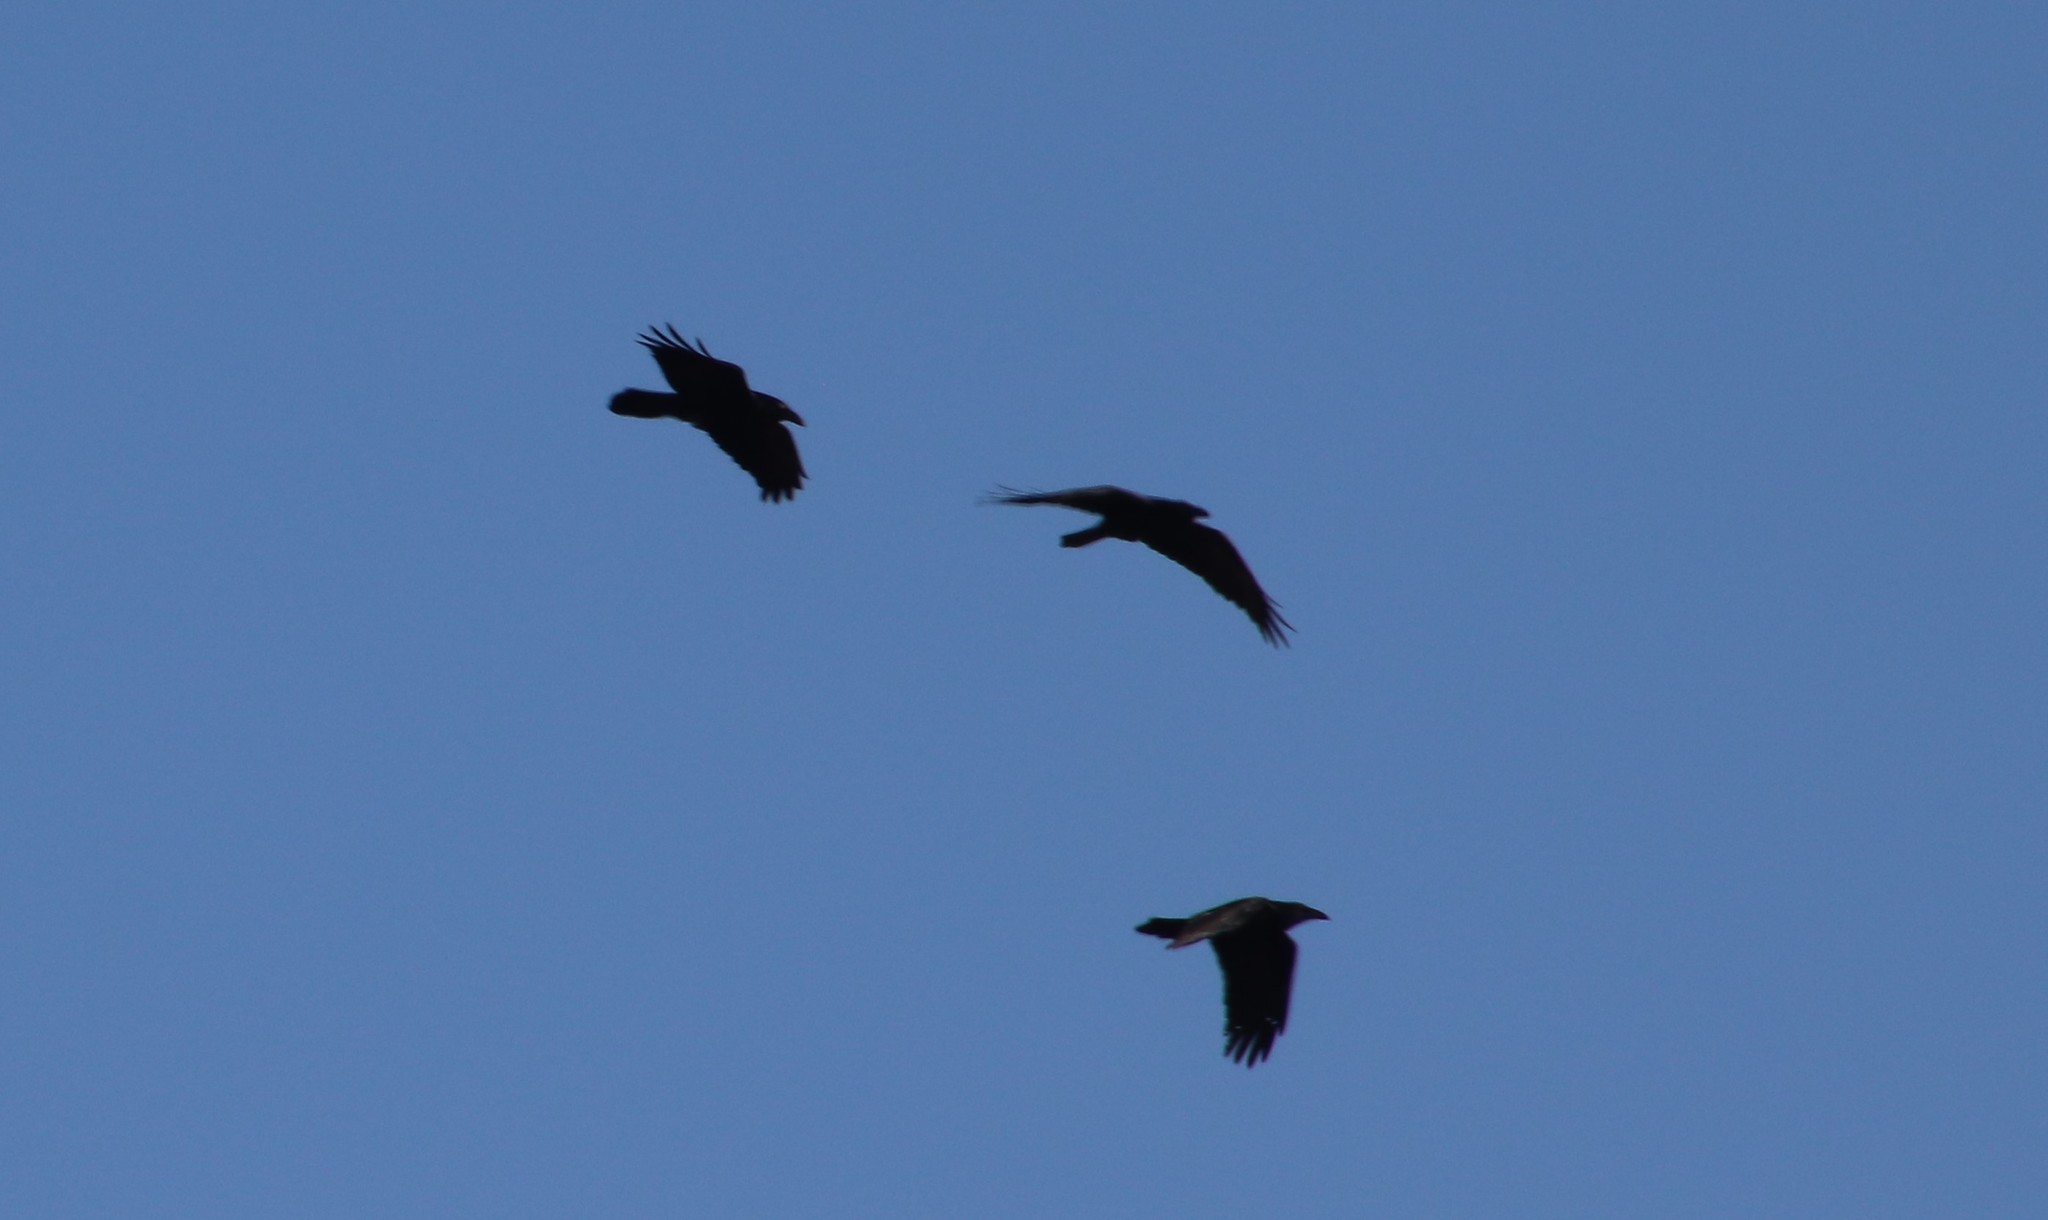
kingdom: Animalia
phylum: Chordata
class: Aves
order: Passeriformes
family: Corvidae
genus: Corvus
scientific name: Corvus corax
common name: Common raven
